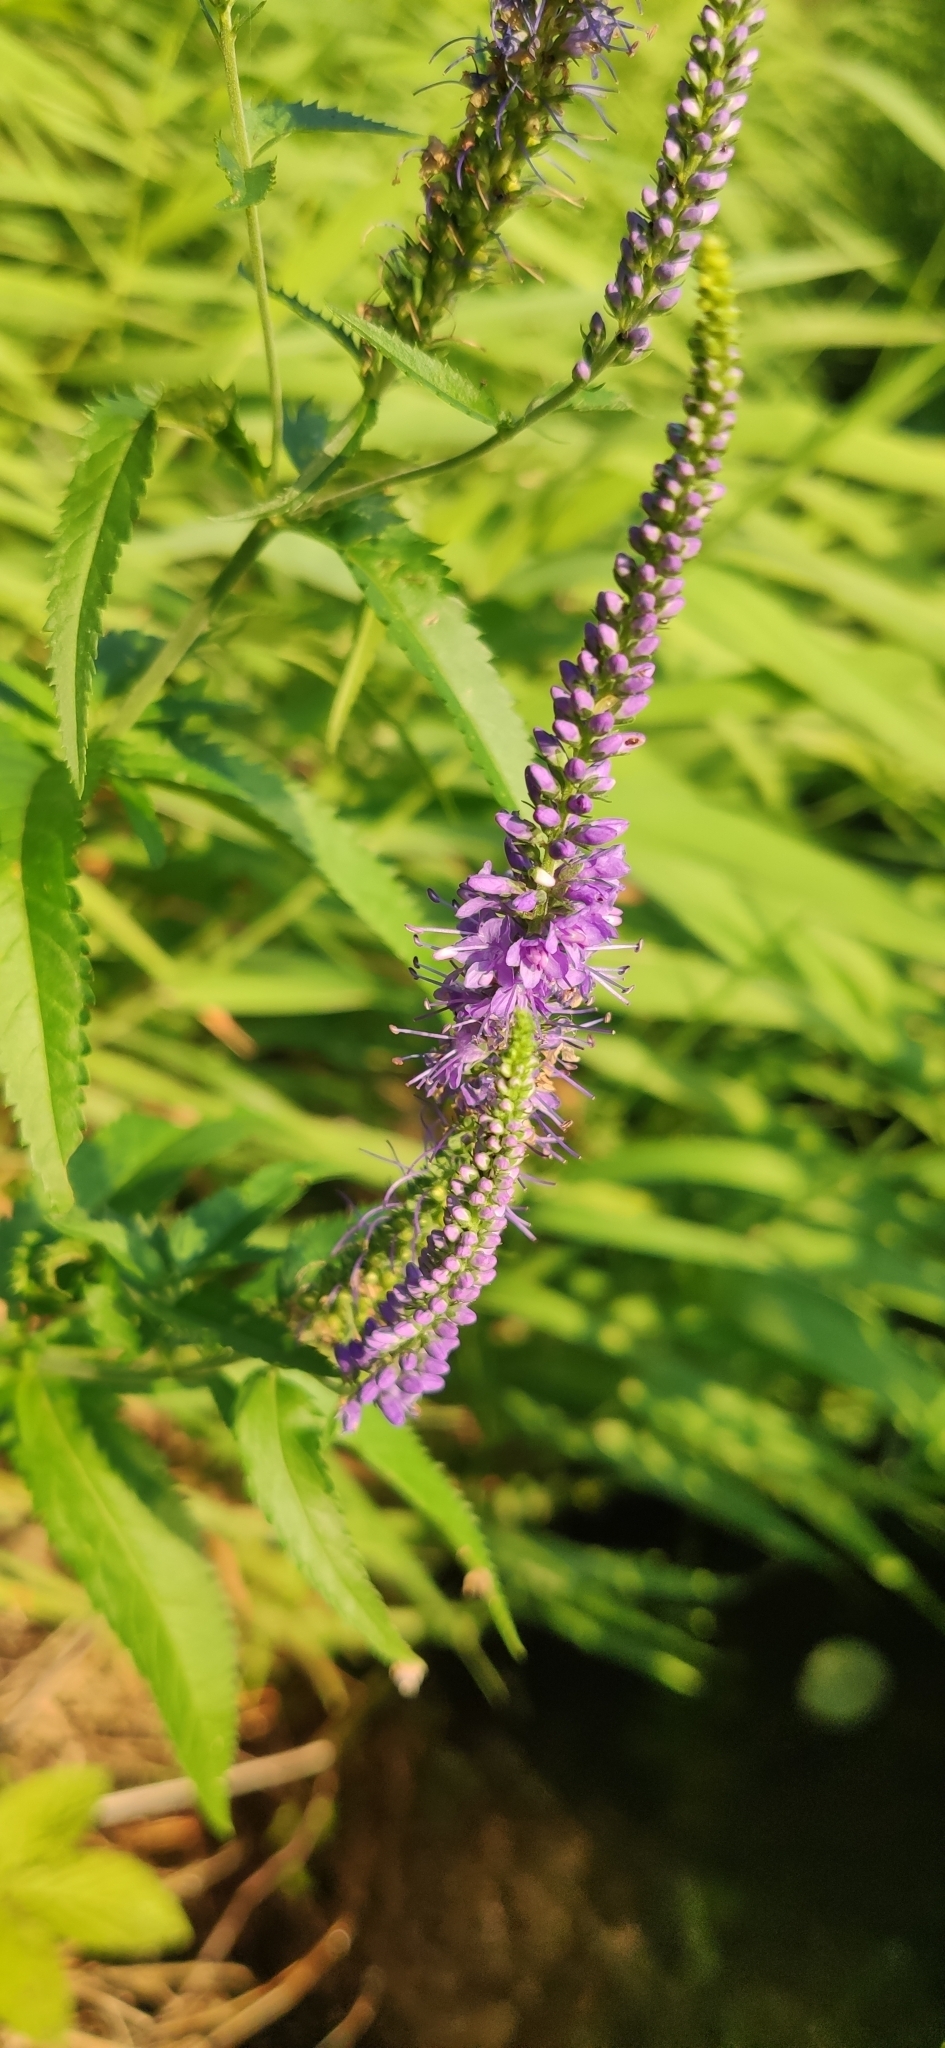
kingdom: Plantae
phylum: Tracheophyta
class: Magnoliopsida
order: Lamiales
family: Plantaginaceae
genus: Veronica
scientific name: Veronica longifolia
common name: Garden speedwell
